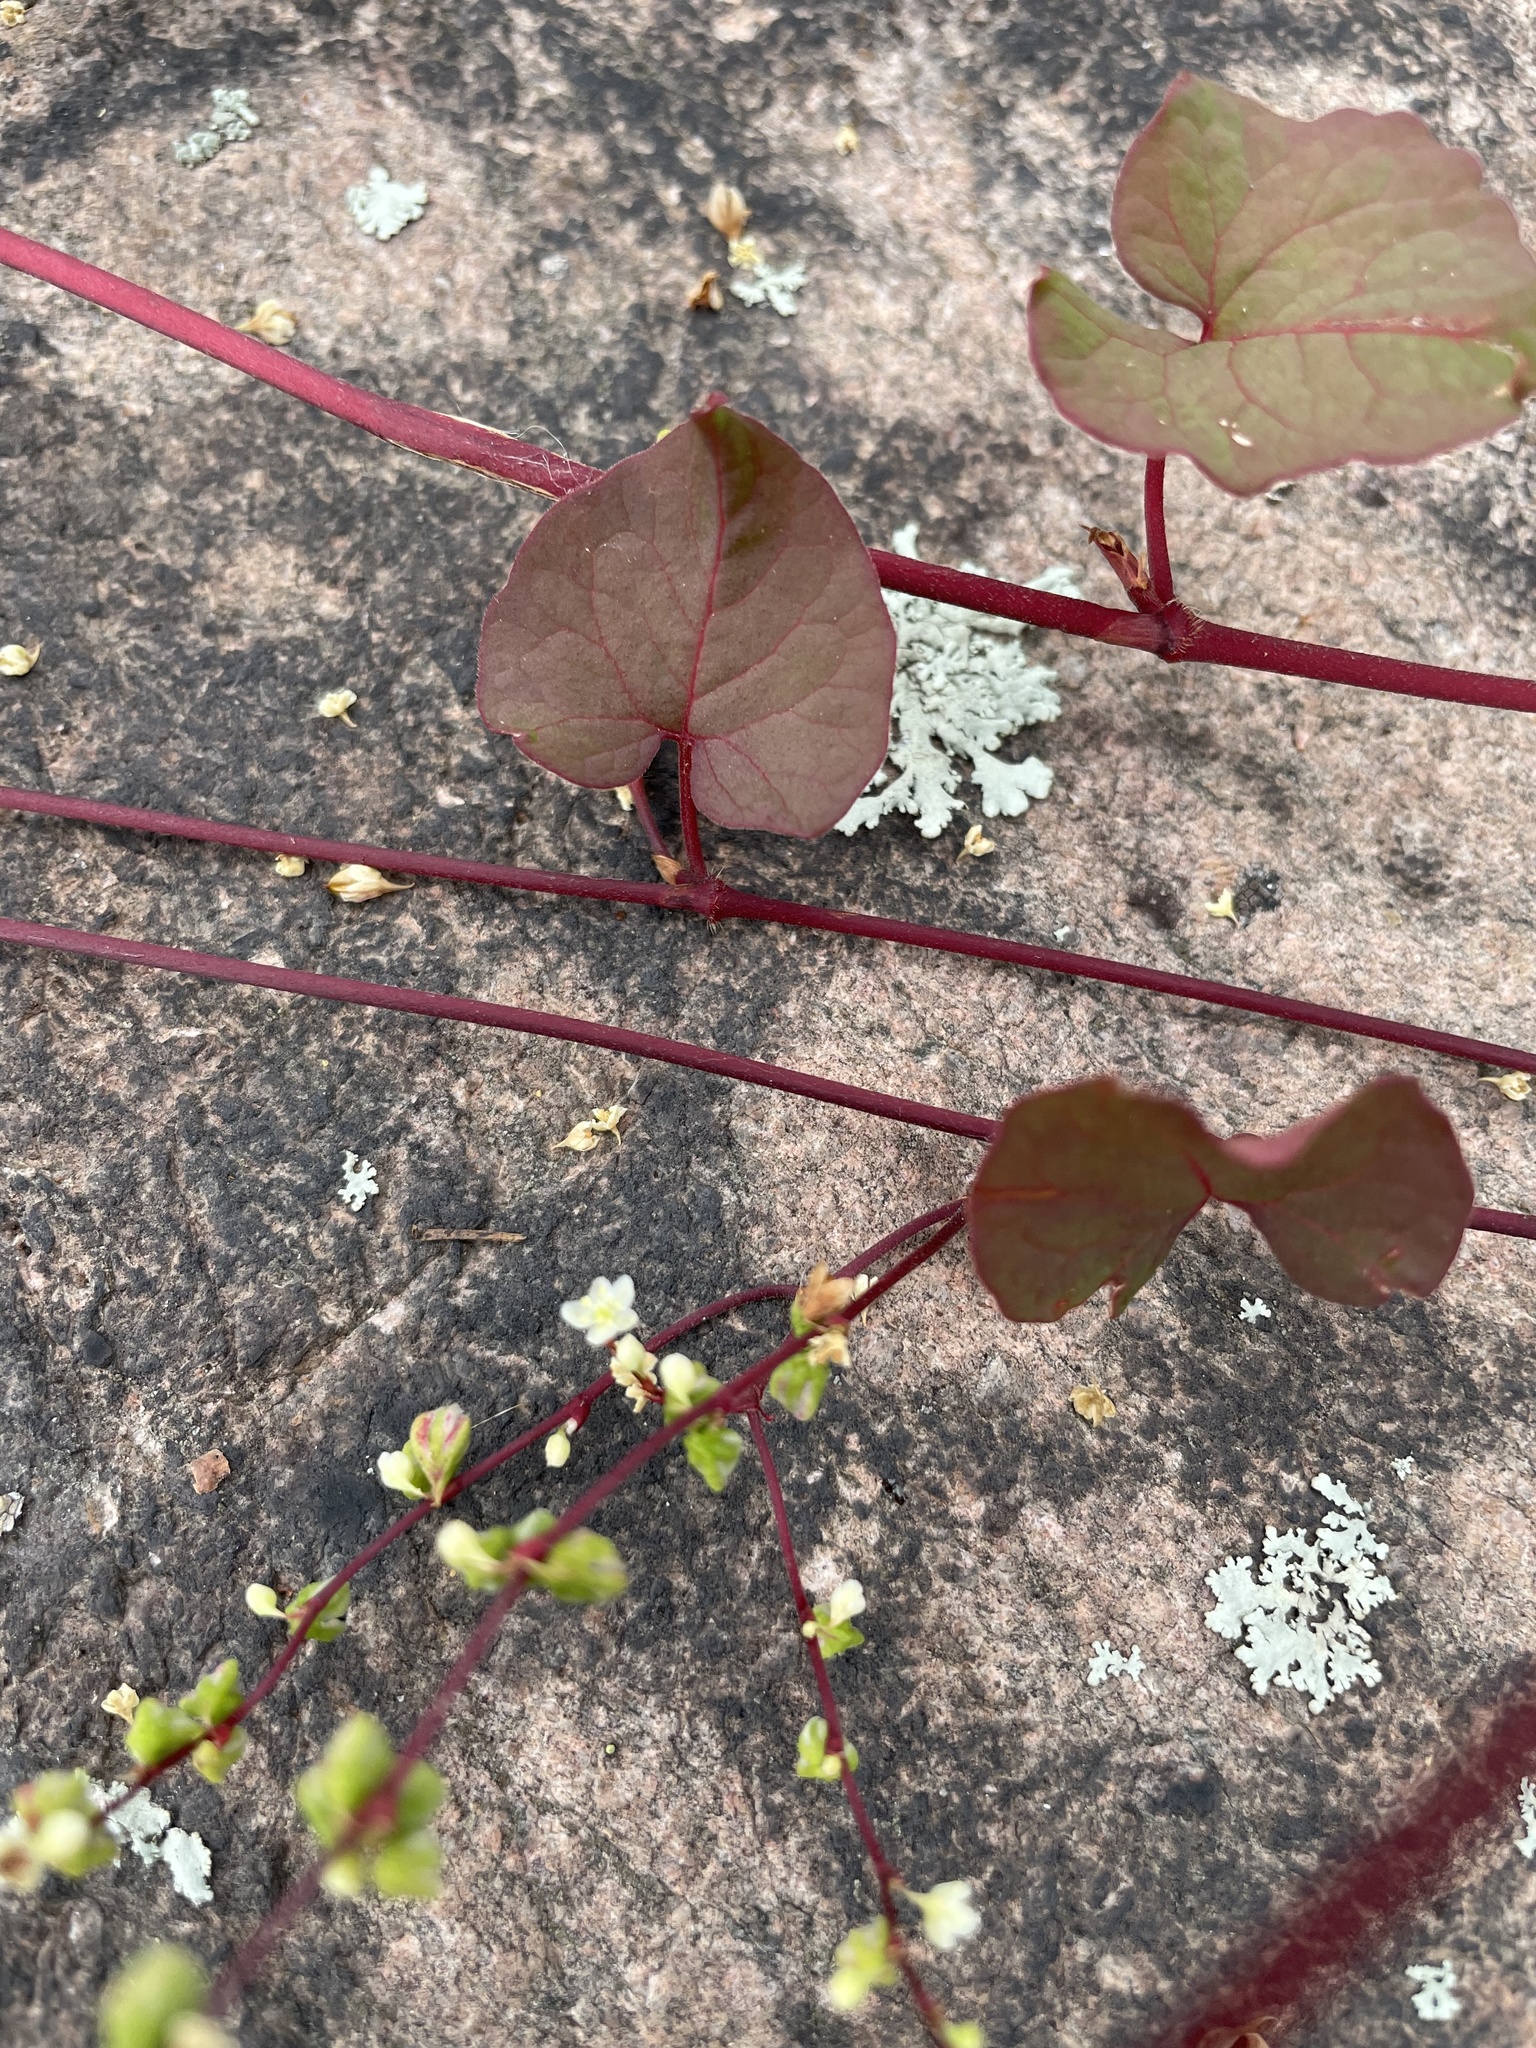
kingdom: Plantae
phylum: Tracheophyta
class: Magnoliopsida
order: Caryophyllales
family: Polygonaceae
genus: Parogonum
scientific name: Parogonum ciliinode
